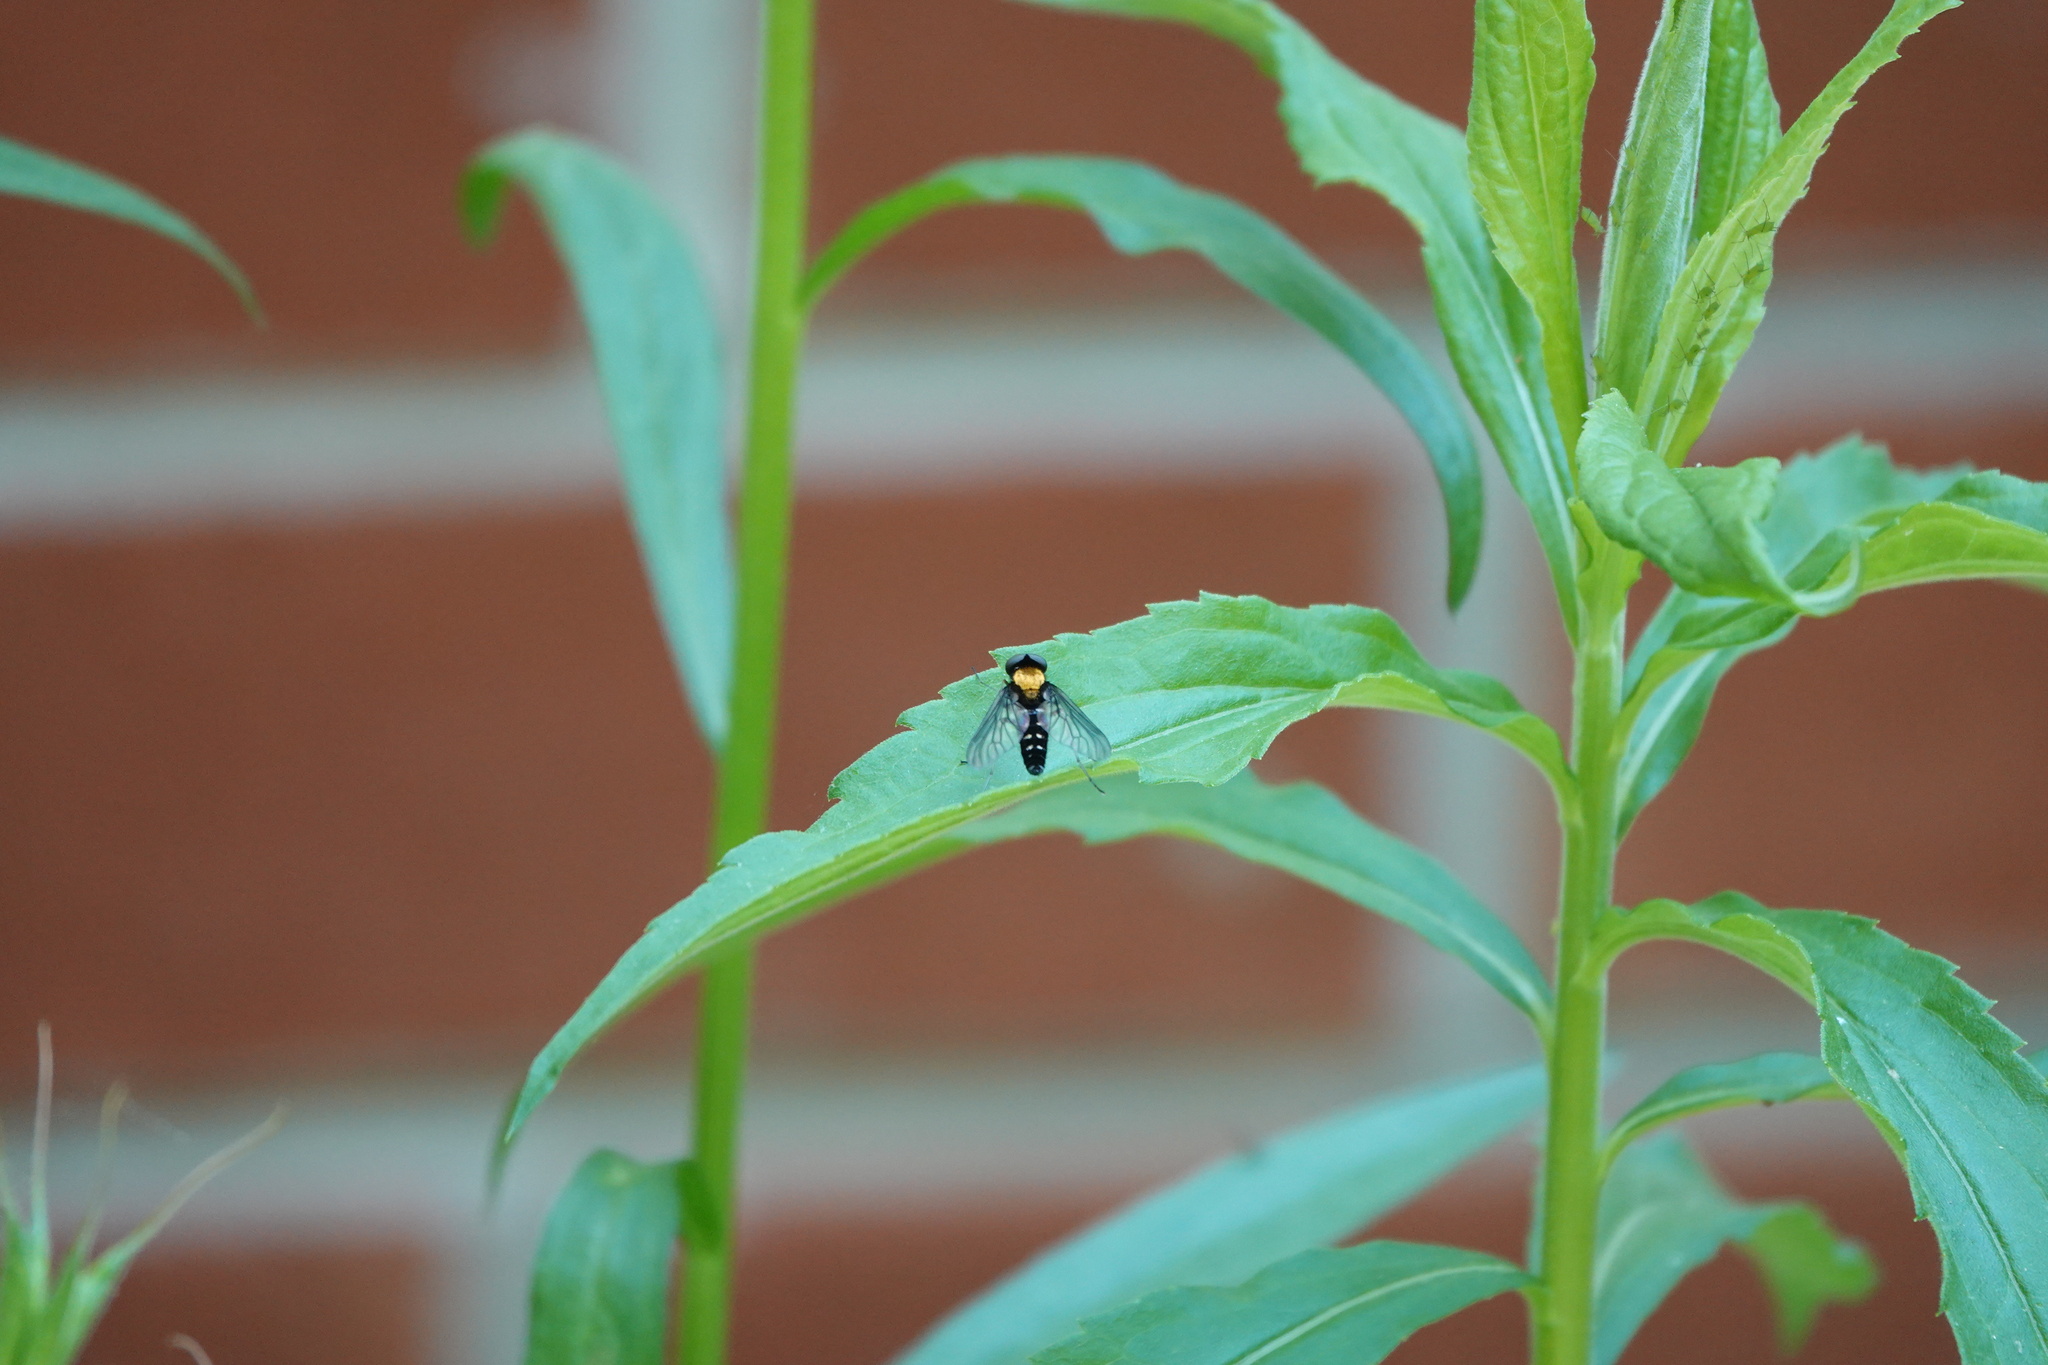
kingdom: Animalia
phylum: Arthropoda
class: Insecta
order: Diptera
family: Rhagionidae
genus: Chrysopilus
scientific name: Chrysopilus thoracicus
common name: Golden-backed snipe fly
